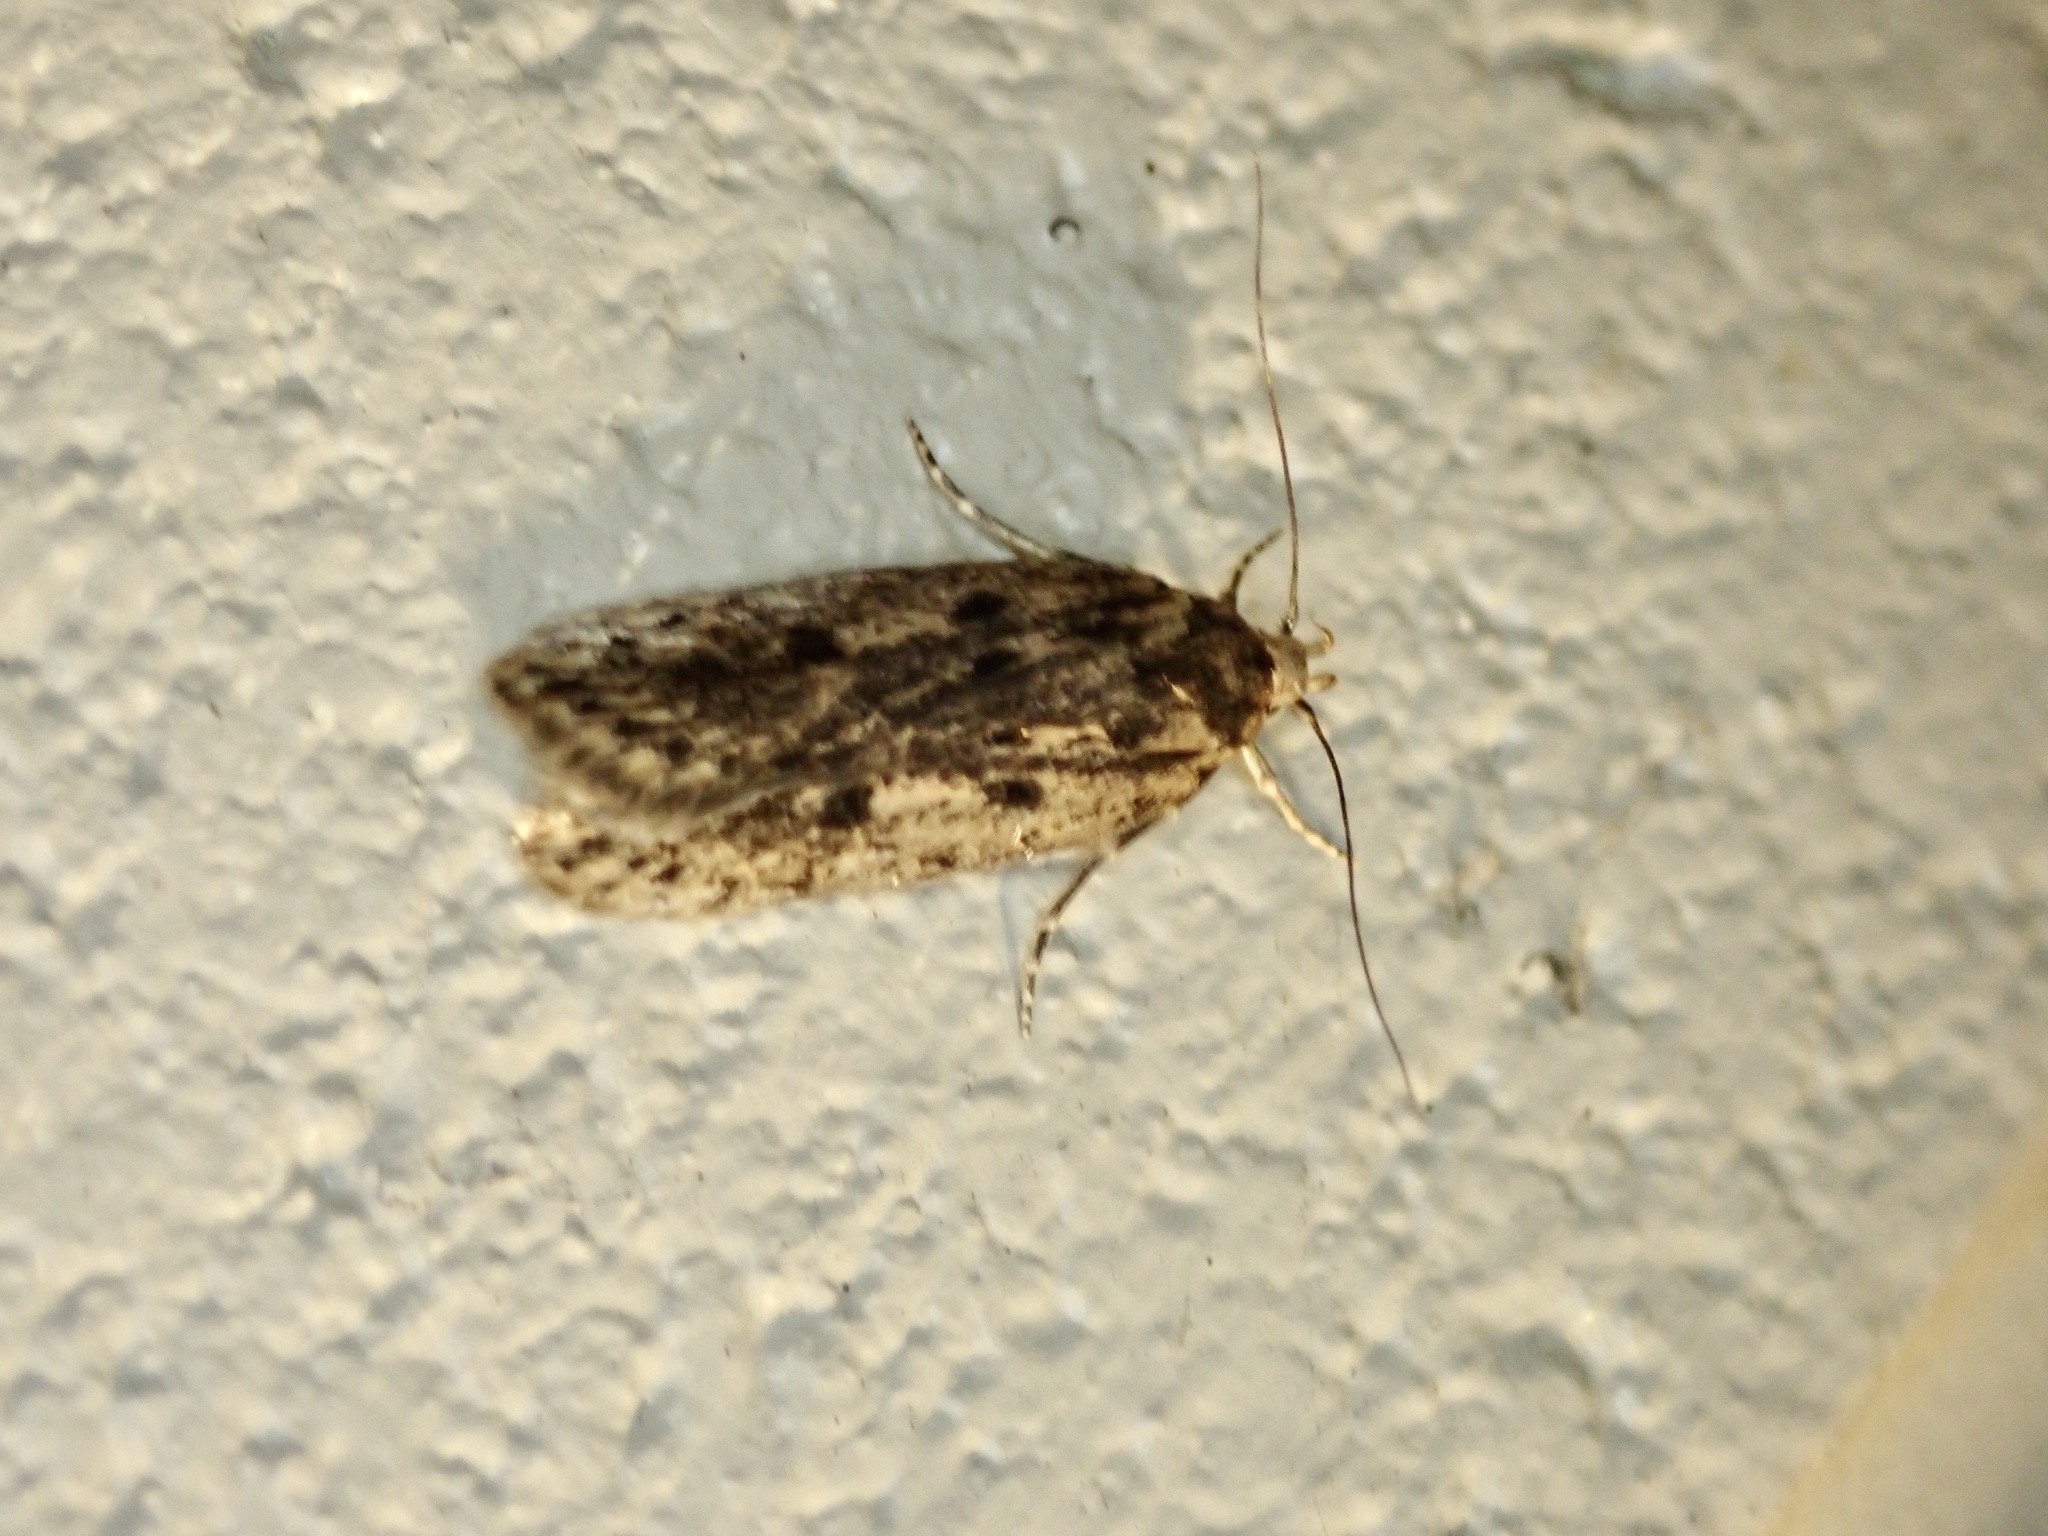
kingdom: Animalia
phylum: Arthropoda
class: Insecta
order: Lepidoptera
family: Oecophoridae
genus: Hofmannophila
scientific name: Hofmannophila pseudospretella
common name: Brown house moth
